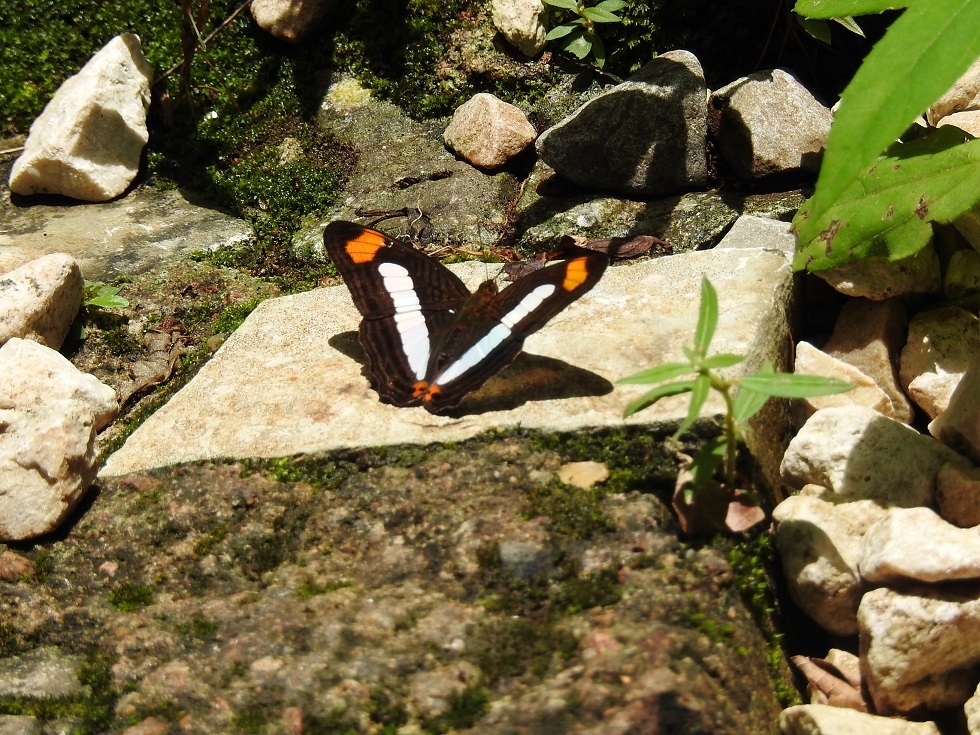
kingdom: Animalia
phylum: Arthropoda
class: Insecta
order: Lepidoptera
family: Nymphalidae
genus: Limenitis
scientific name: Limenitis iphiclus
